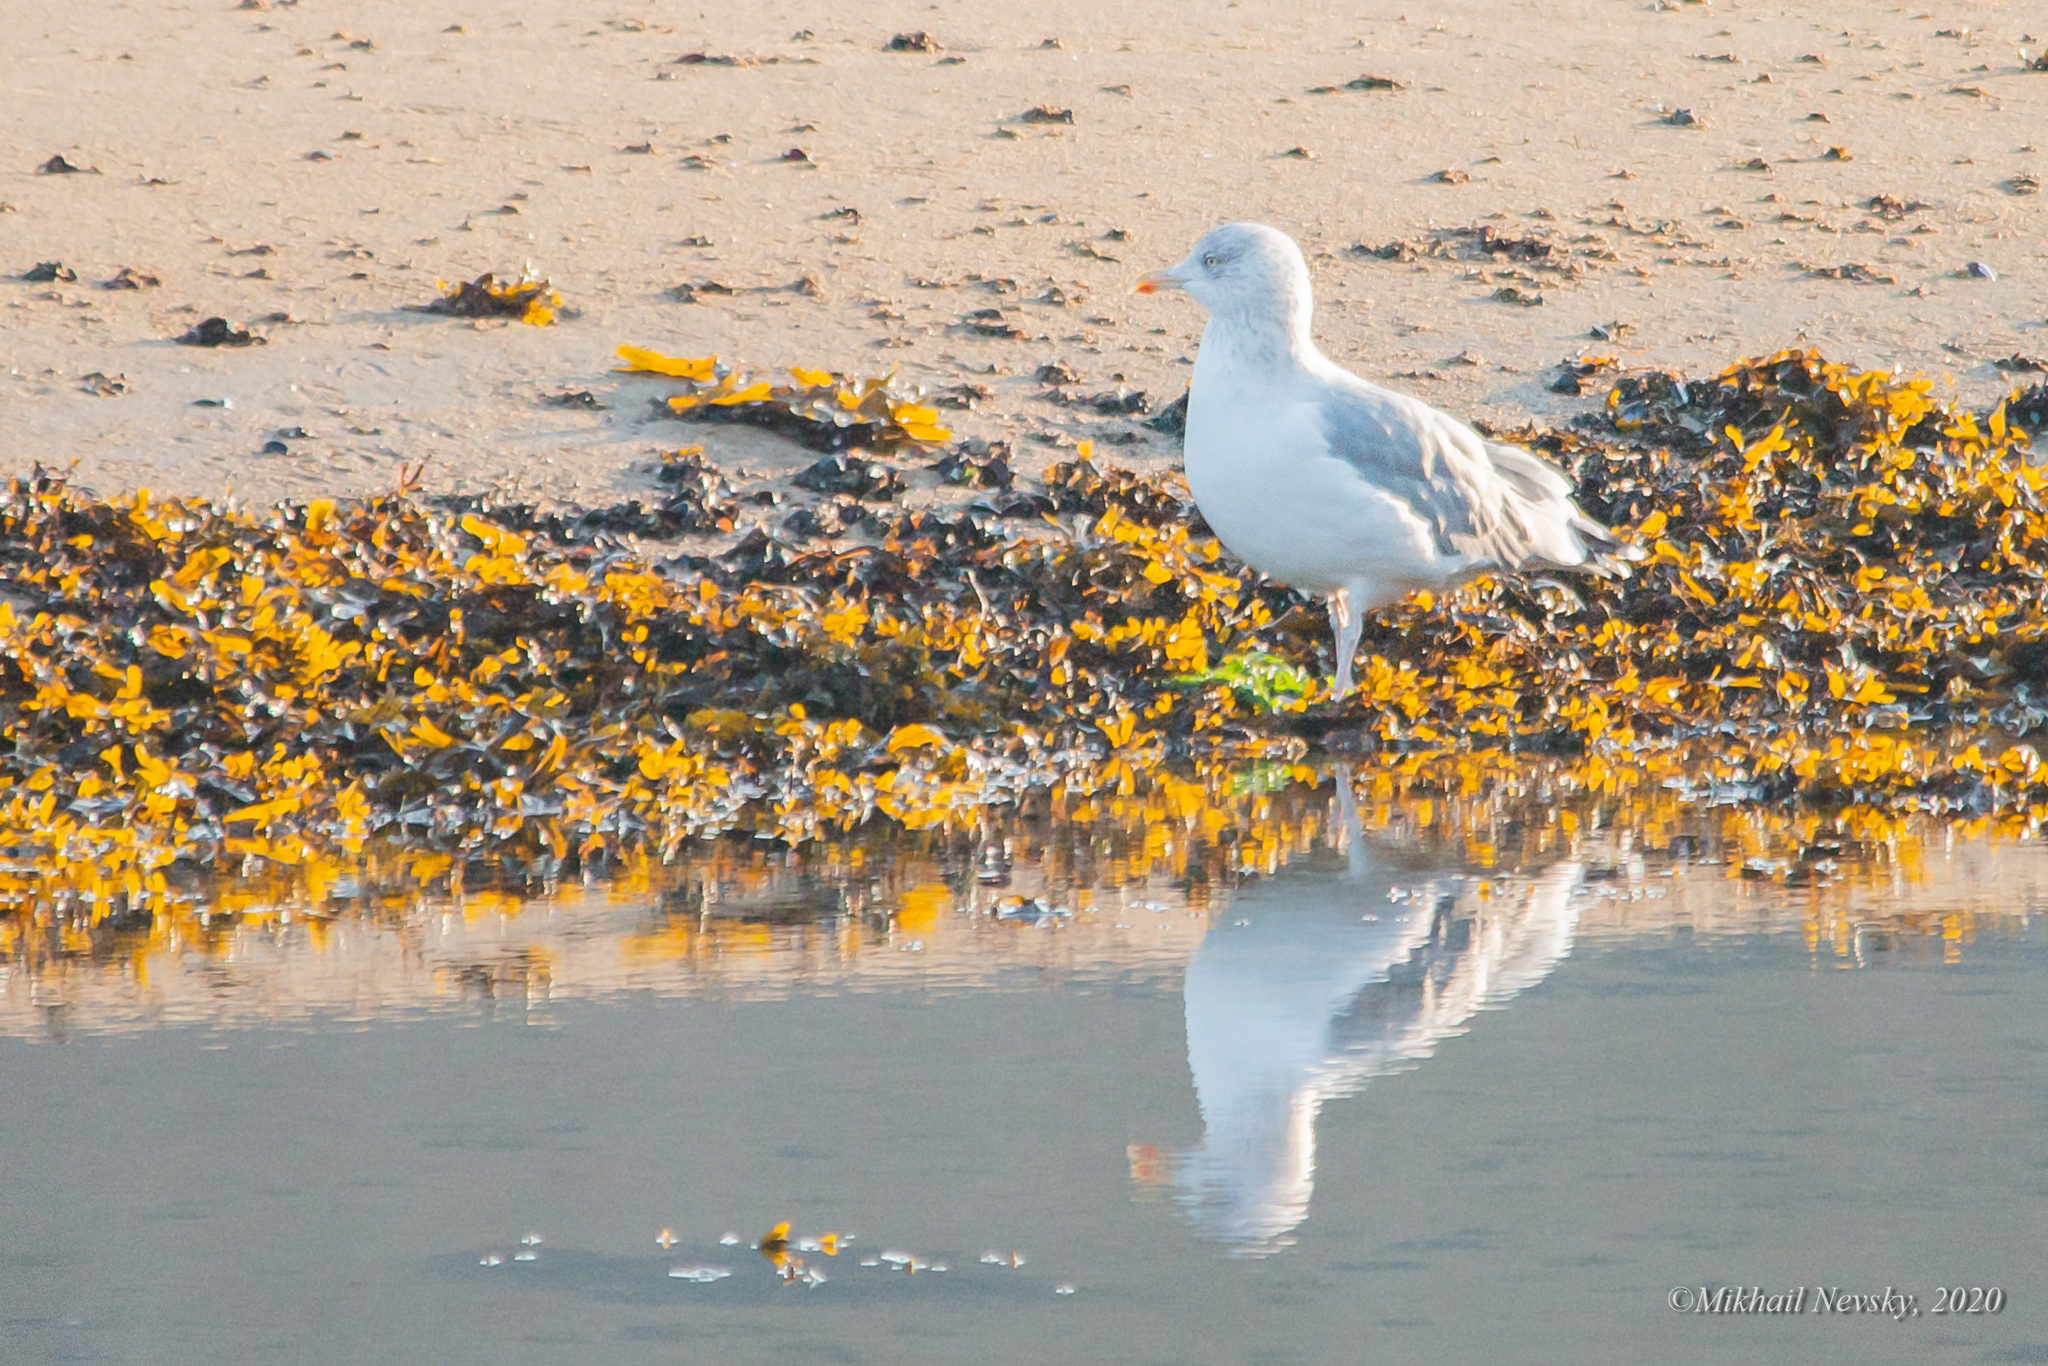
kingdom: Animalia
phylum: Chordata
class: Aves
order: Charadriiformes
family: Laridae
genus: Larus
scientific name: Larus argentatus
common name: Herring gull
